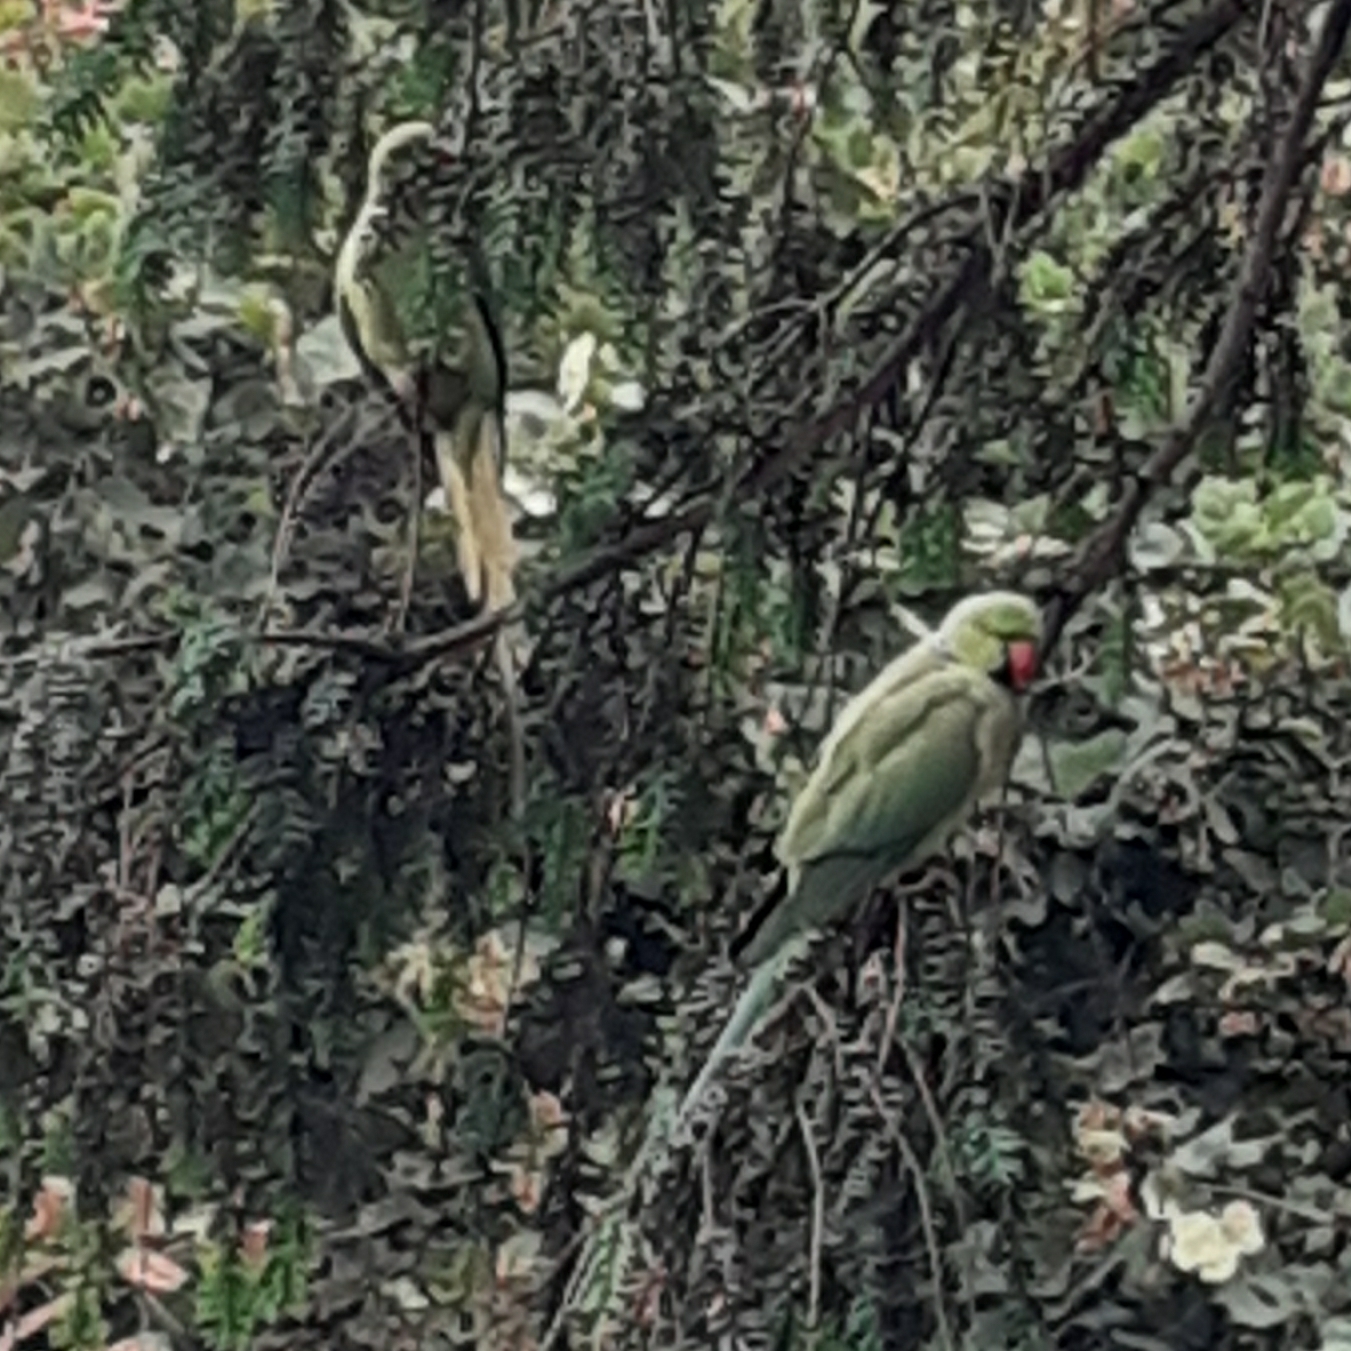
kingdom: Animalia
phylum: Chordata
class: Aves
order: Psittaciformes
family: Psittacidae
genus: Psittacula
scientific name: Psittacula krameri
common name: Rose-ringed parakeet
